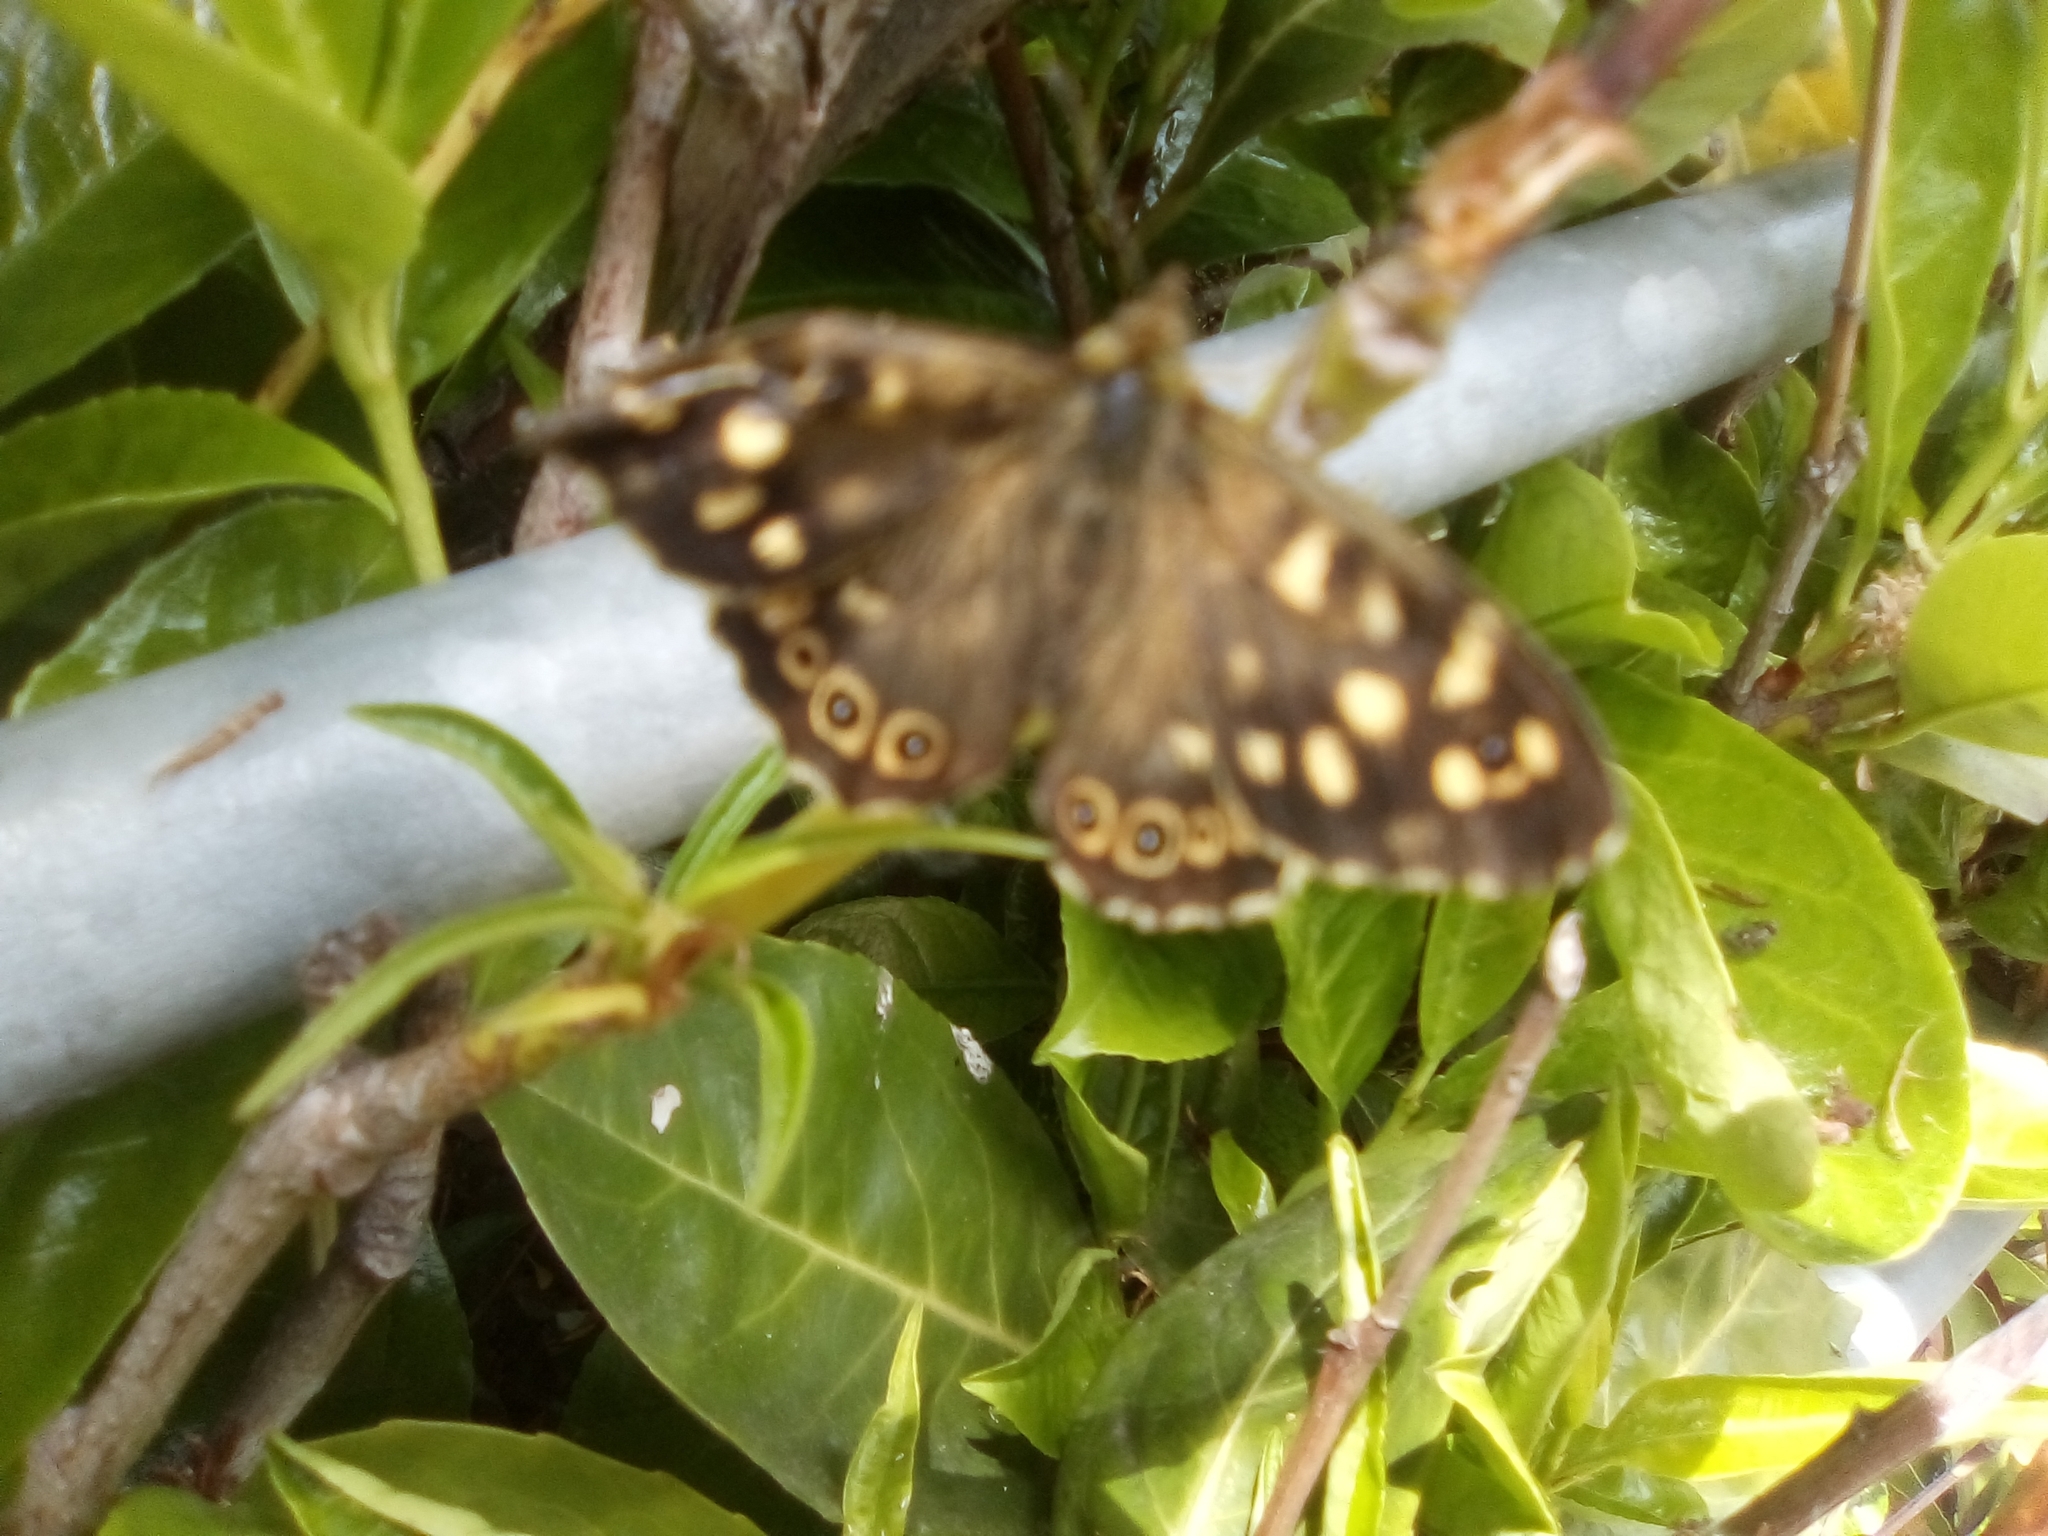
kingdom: Animalia
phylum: Arthropoda
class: Insecta
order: Lepidoptera
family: Nymphalidae
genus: Pararge
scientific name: Pararge aegeria
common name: Speckled wood
